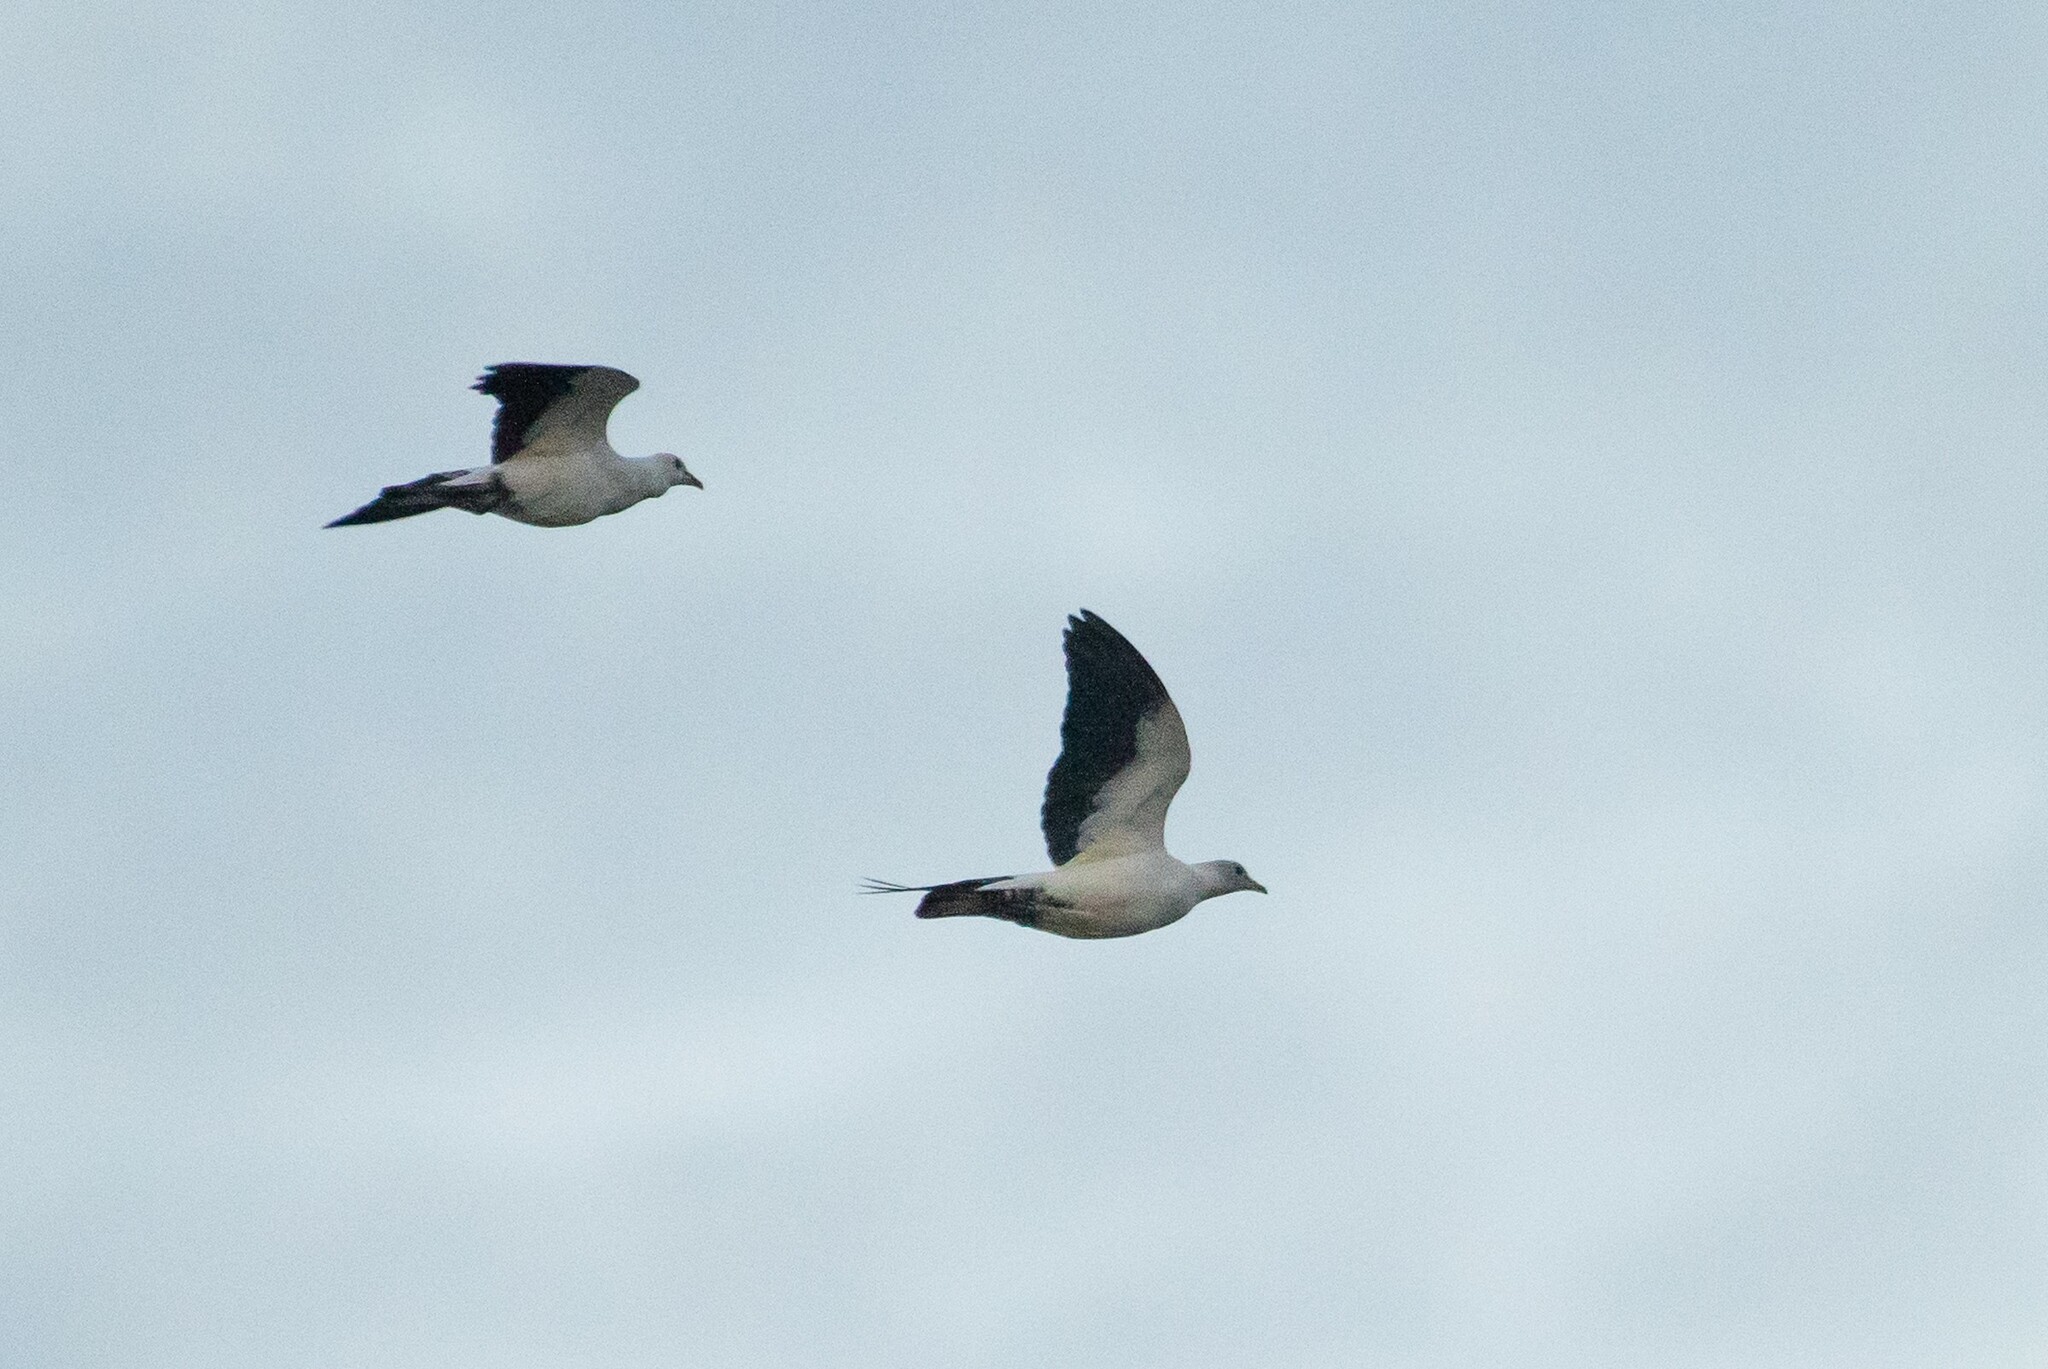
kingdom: Animalia
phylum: Chordata
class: Aves
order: Columbiformes
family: Columbidae
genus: Ducula
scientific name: Ducula spilorrhoa
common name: Torresian imperial pigeon
